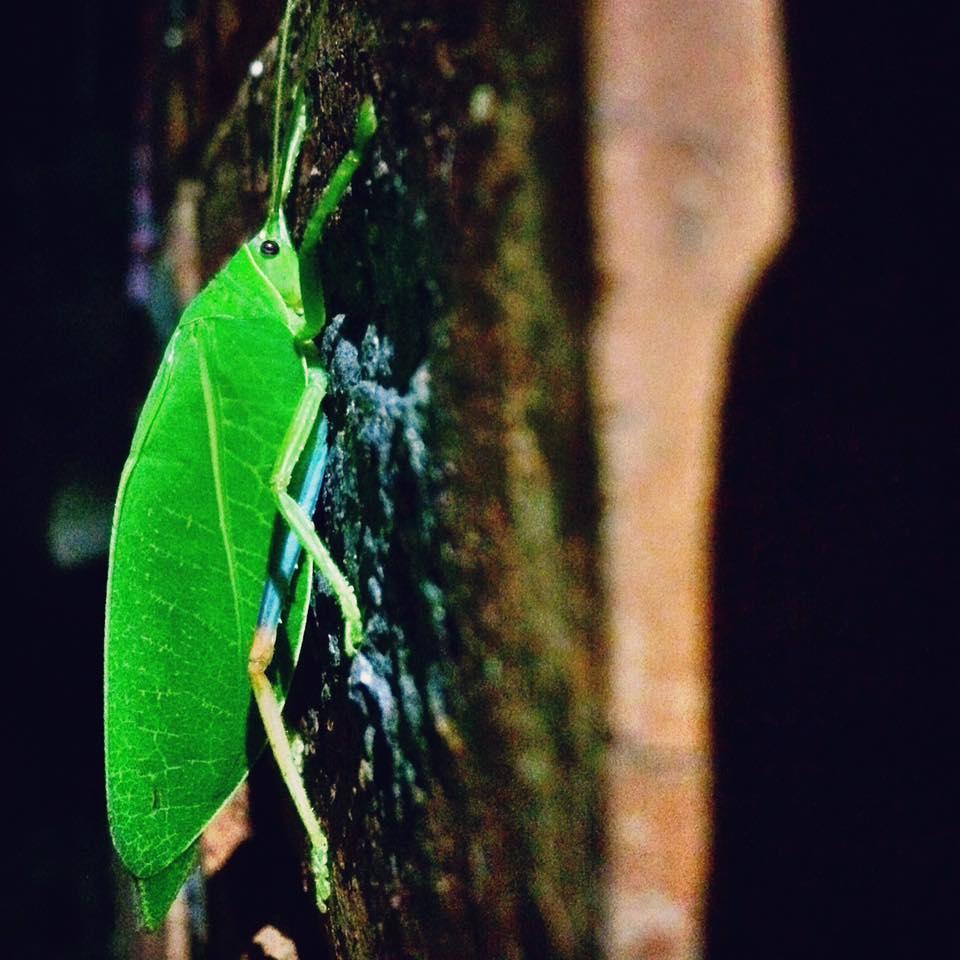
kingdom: Animalia
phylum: Arthropoda
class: Insecta
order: Orthoptera
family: Tettigoniidae
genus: Zabalius
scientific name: Zabalius ophthalmicus
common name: Blue-legged sylvan katydid
